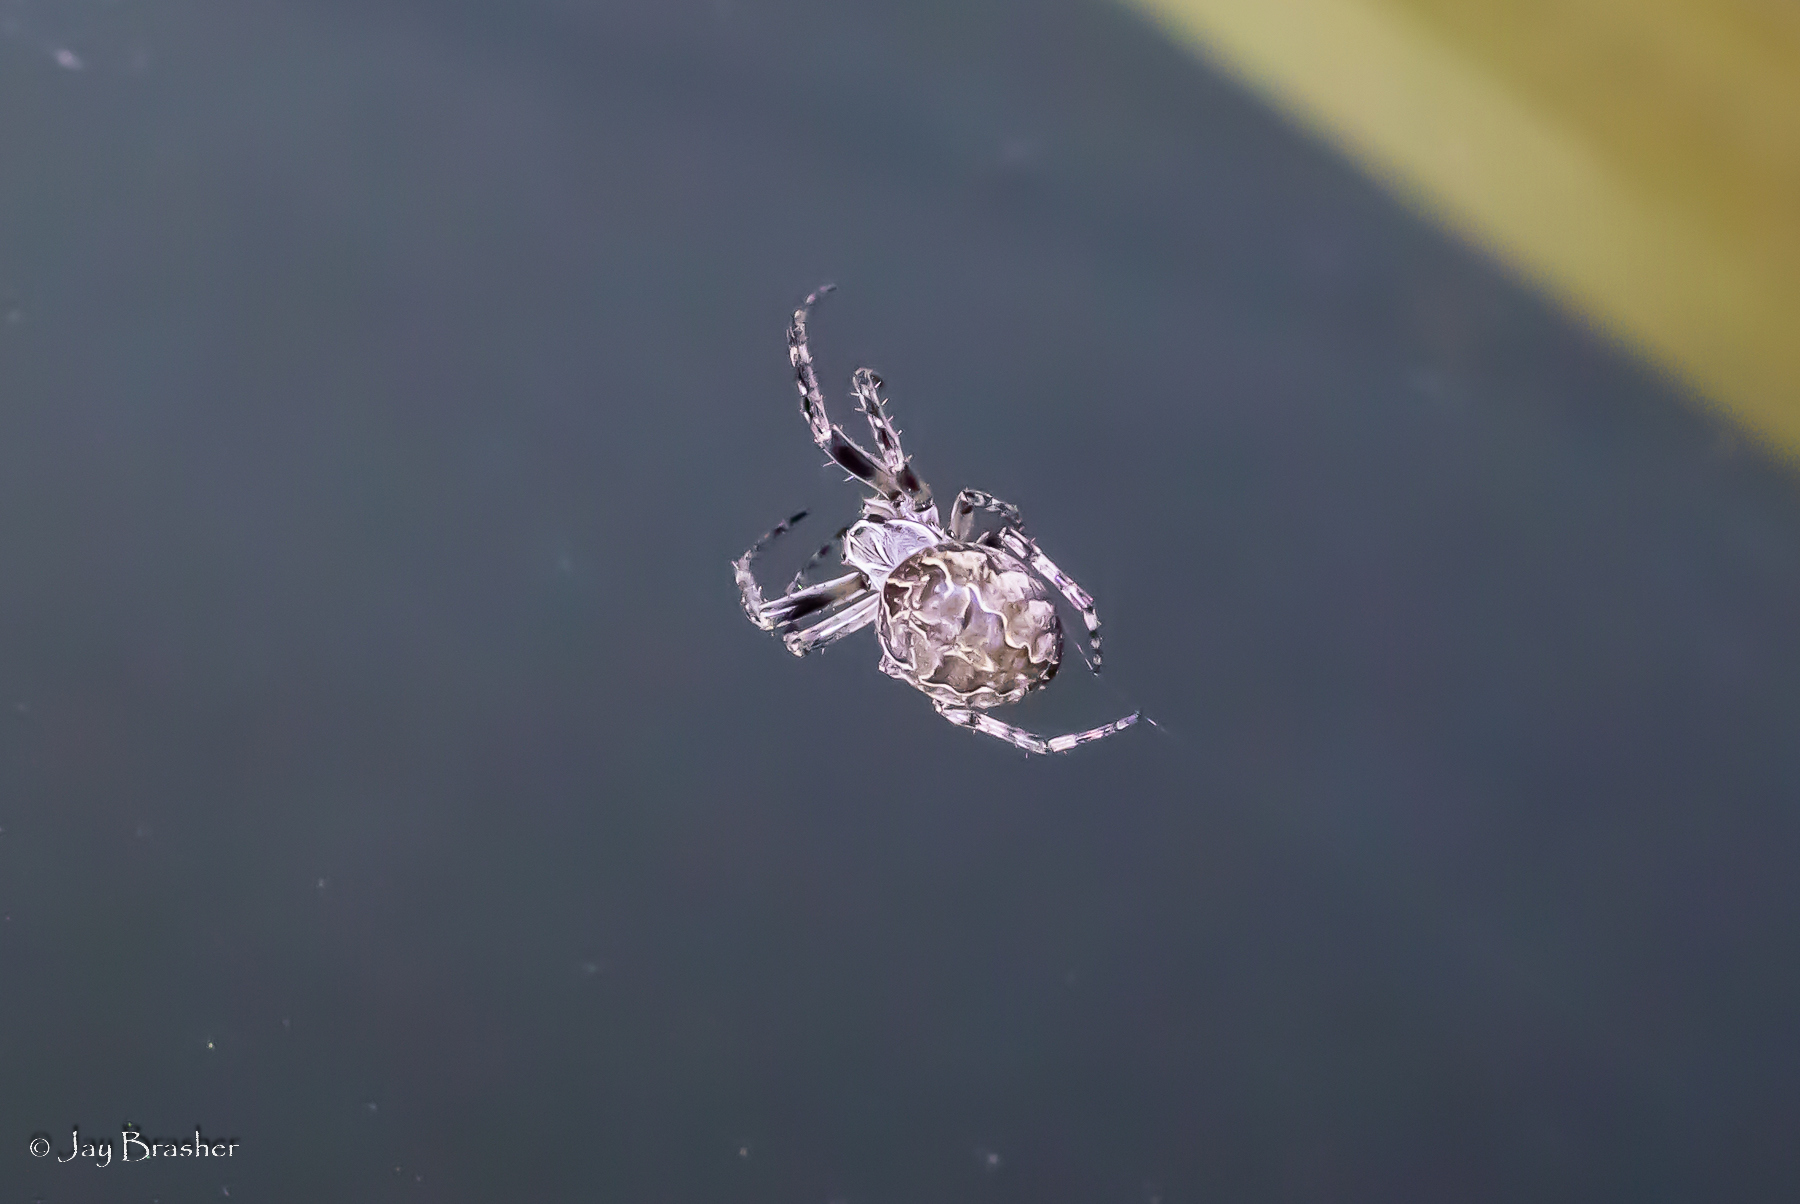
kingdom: Animalia
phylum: Arthropoda
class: Arachnida
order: Araneae
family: Araneidae
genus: Larinioides
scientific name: Larinioides sclopetarius
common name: Bridge orbweaver
